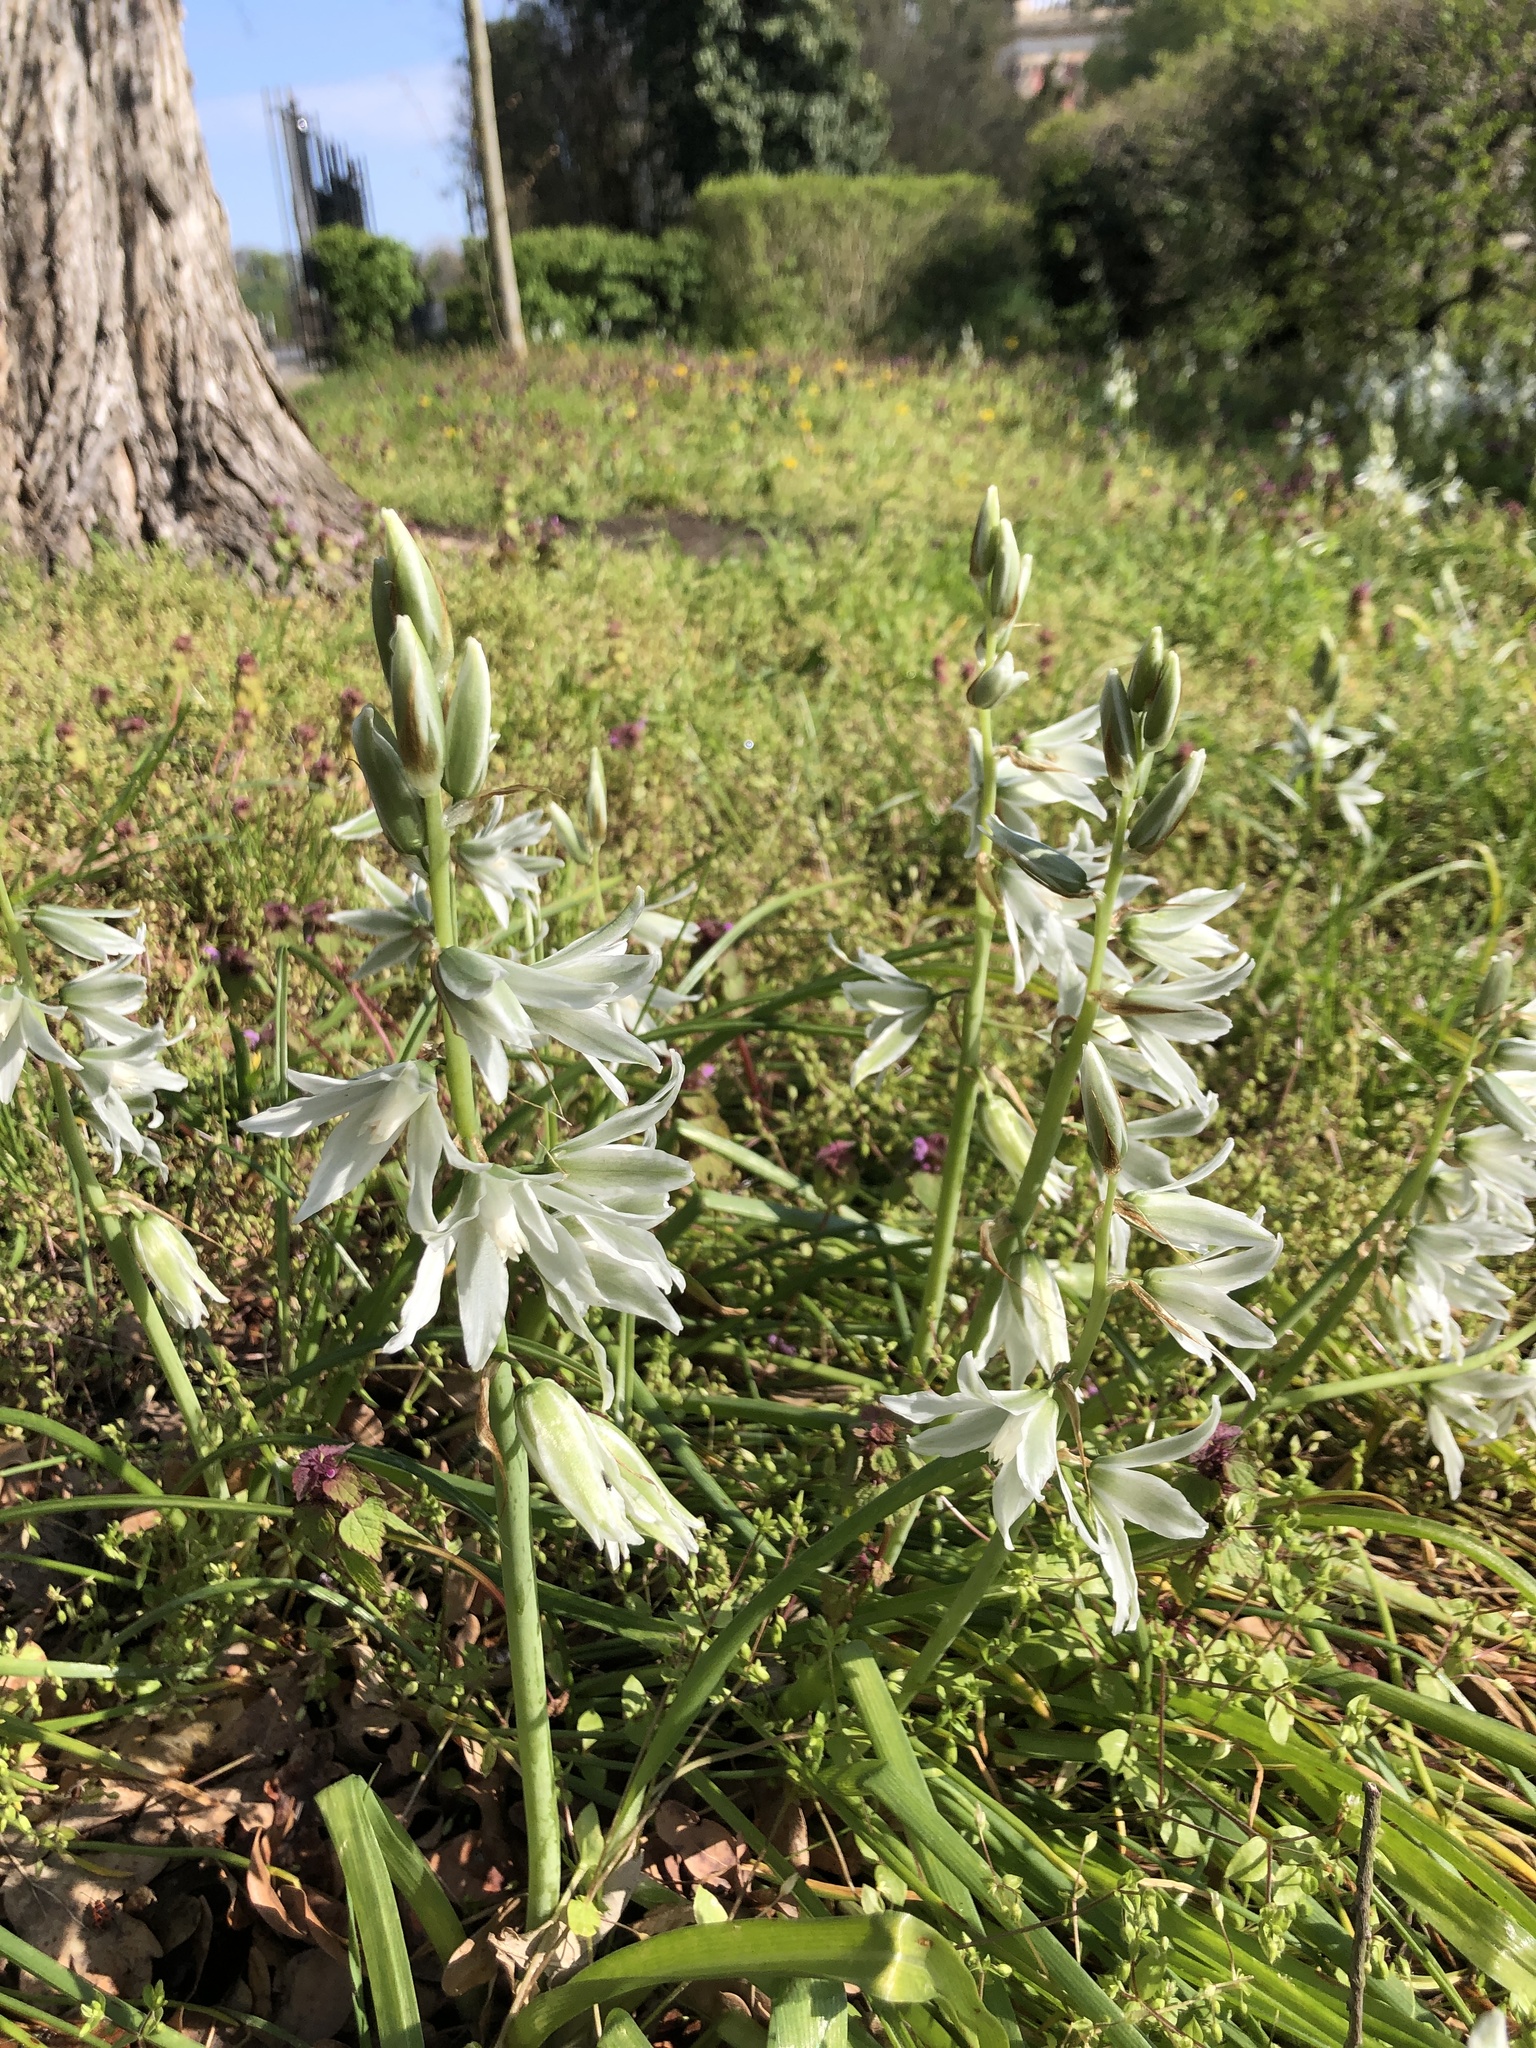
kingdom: Plantae
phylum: Tracheophyta
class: Liliopsida
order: Asparagales
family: Asparagaceae
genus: Ornithogalum
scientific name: Ornithogalum nutans
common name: Drooping star-of-bethlehem
